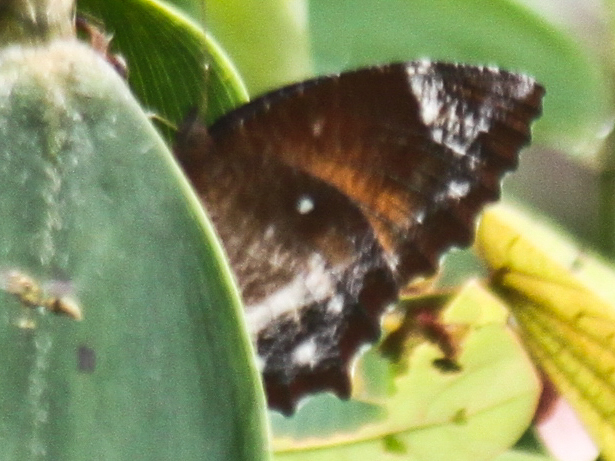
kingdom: Animalia
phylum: Arthropoda
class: Insecta
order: Lepidoptera
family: Nymphalidae
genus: Elymnias
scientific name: Elymnias hypermnestra
